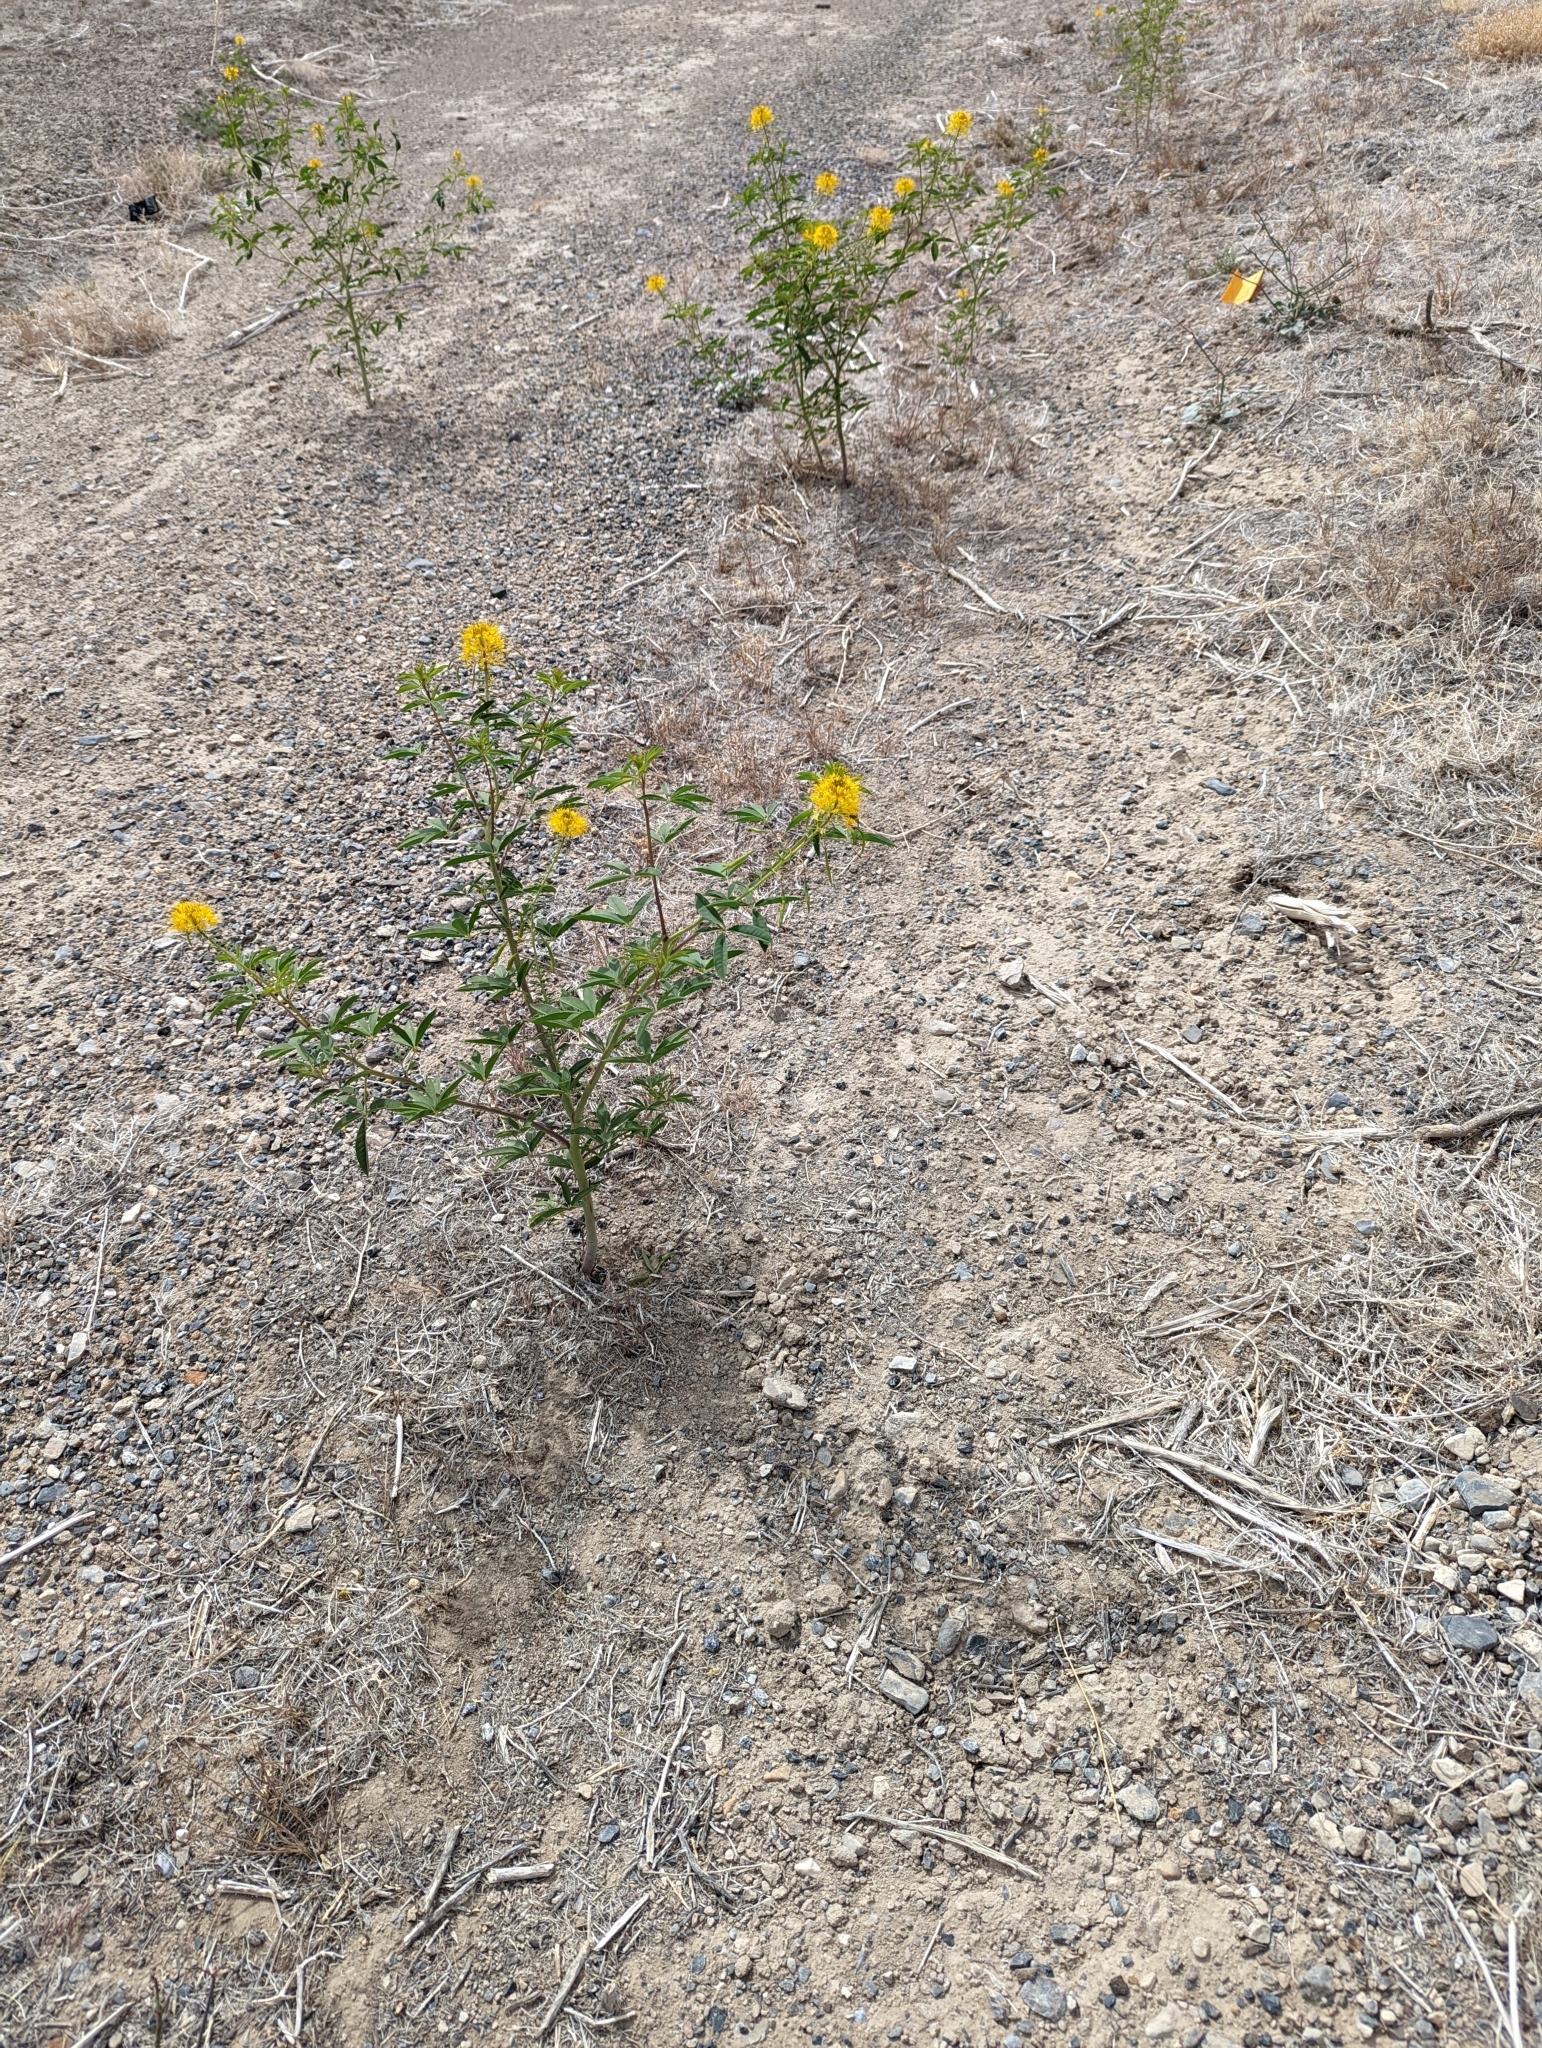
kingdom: Plantae
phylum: Tracheophyta
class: Magnoliopsida
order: Brassicales
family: Cleomaceae
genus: Cleomella
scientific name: Cleomella lutea
